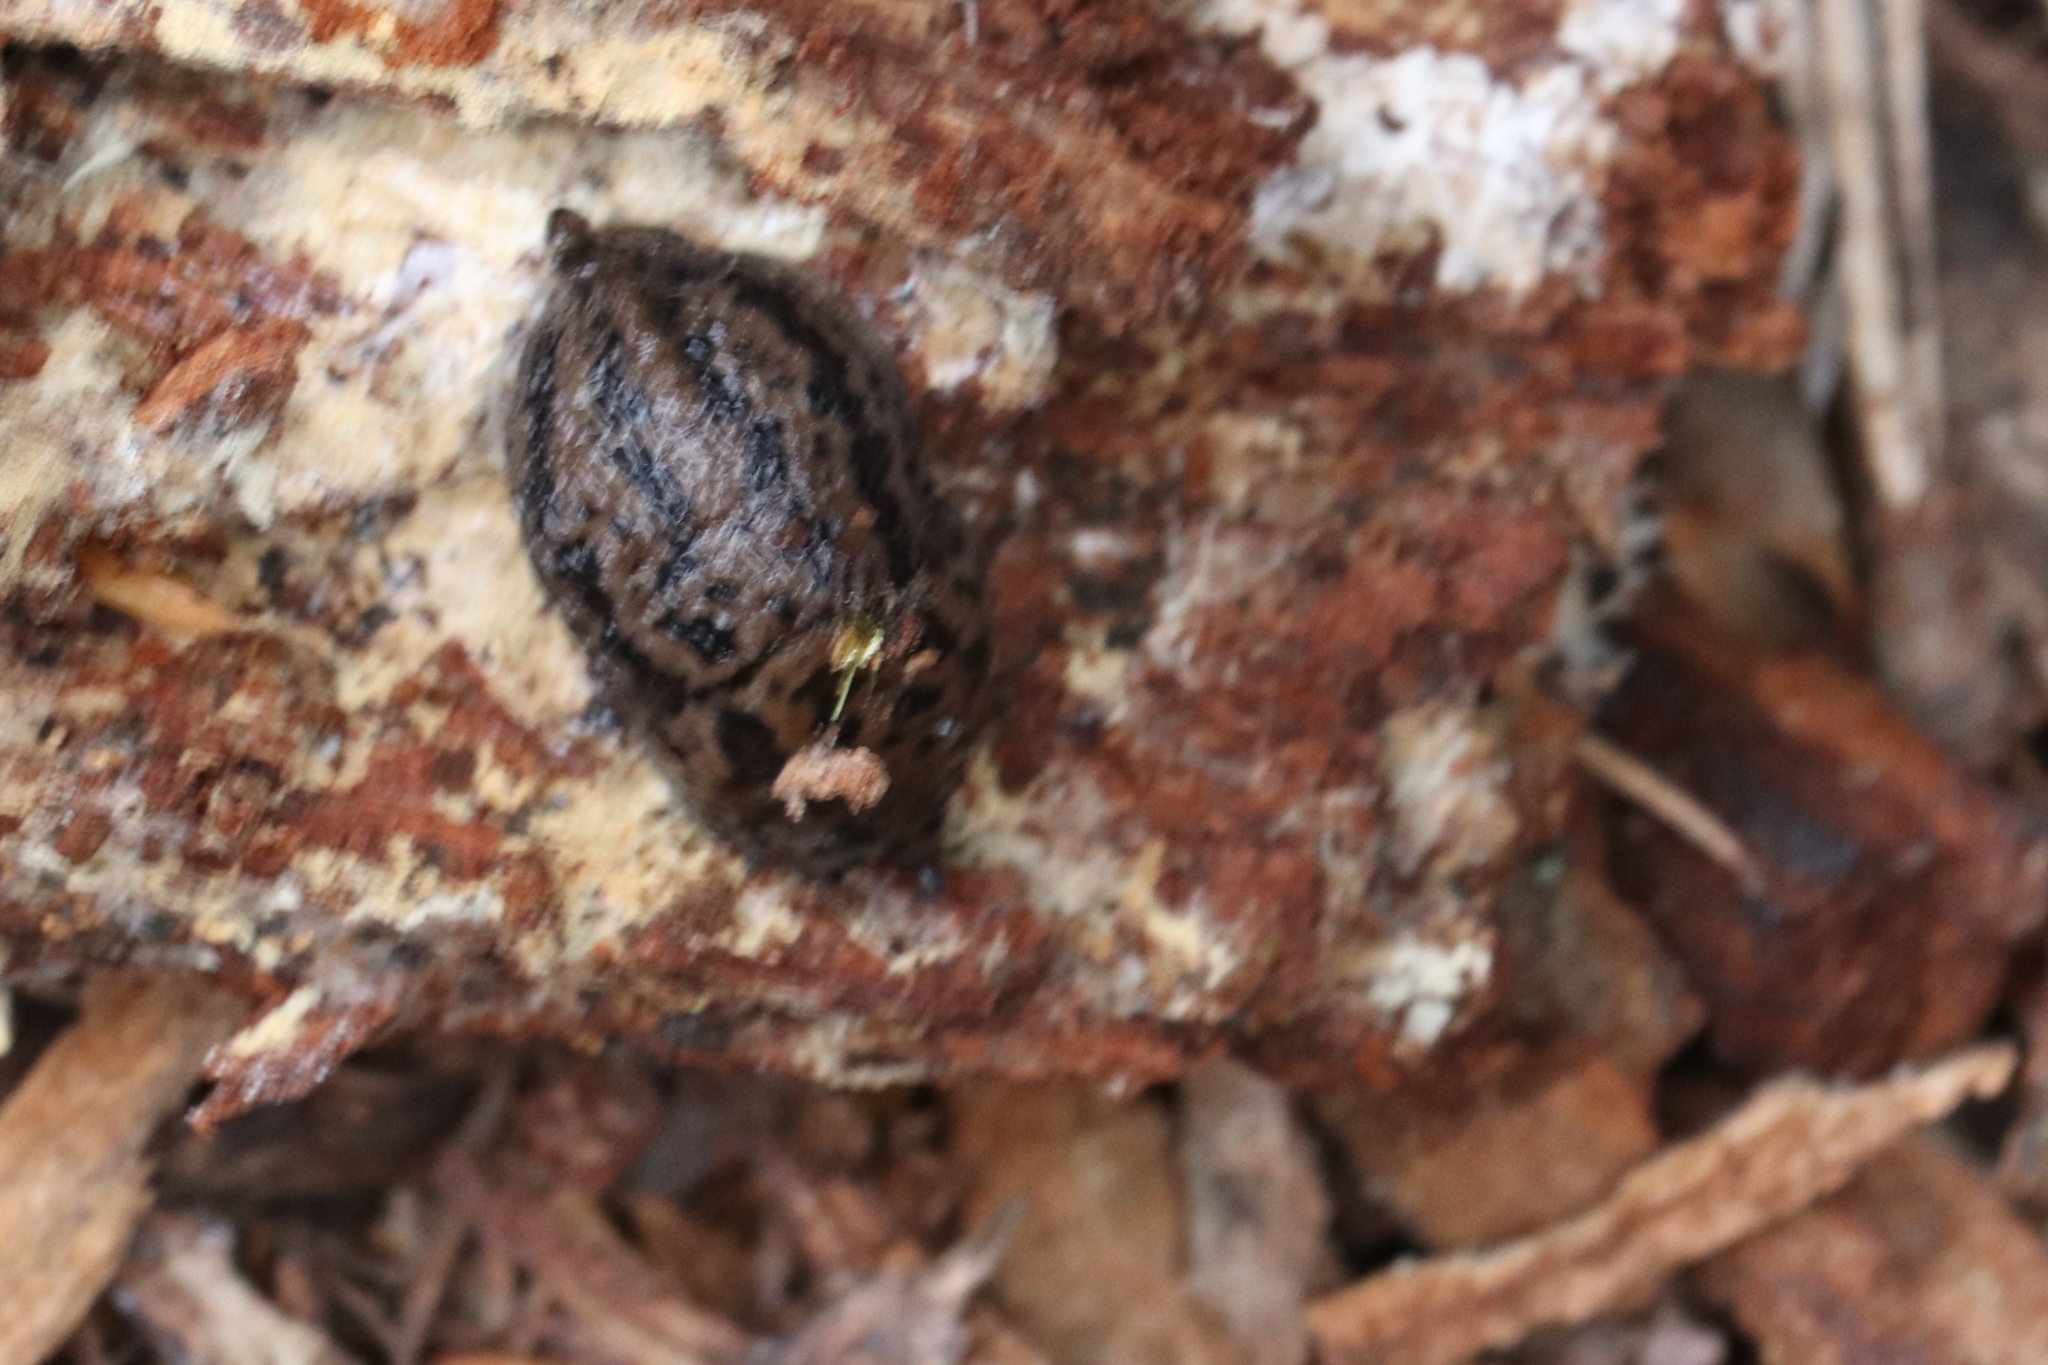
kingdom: Animalia
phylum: Mollusca
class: Gastropoda
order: Stylommatophora
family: Limacidae
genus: Limax
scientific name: Limax maximus
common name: Great grey slug
